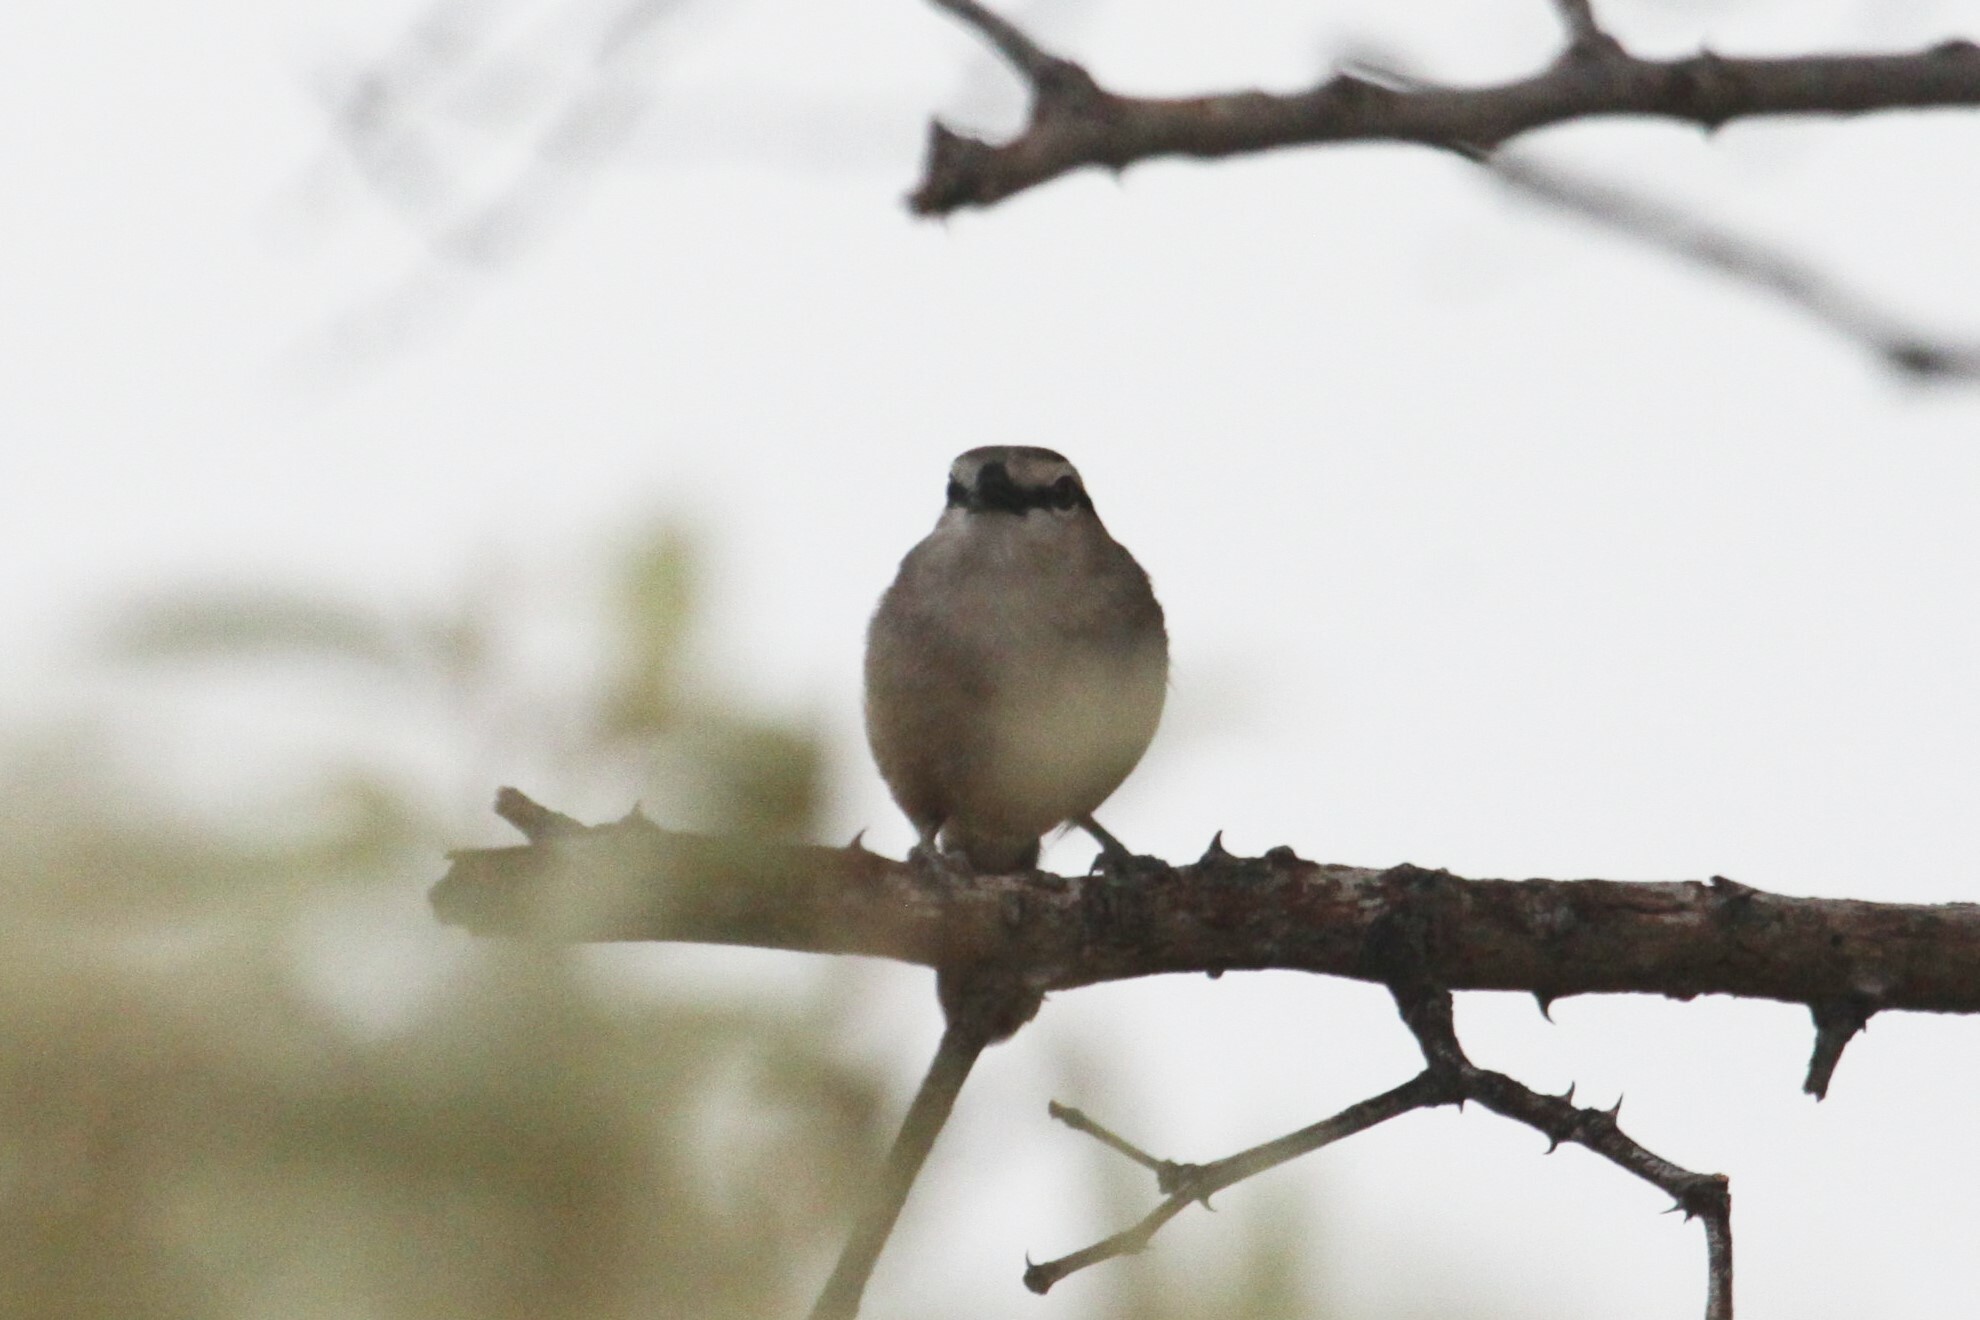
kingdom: Animalia
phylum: Chordata
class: Aves
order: Passeriformes
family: Malaconotidae
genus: Tchagra
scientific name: Tchagra australis
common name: Brown-crowned tchagra
